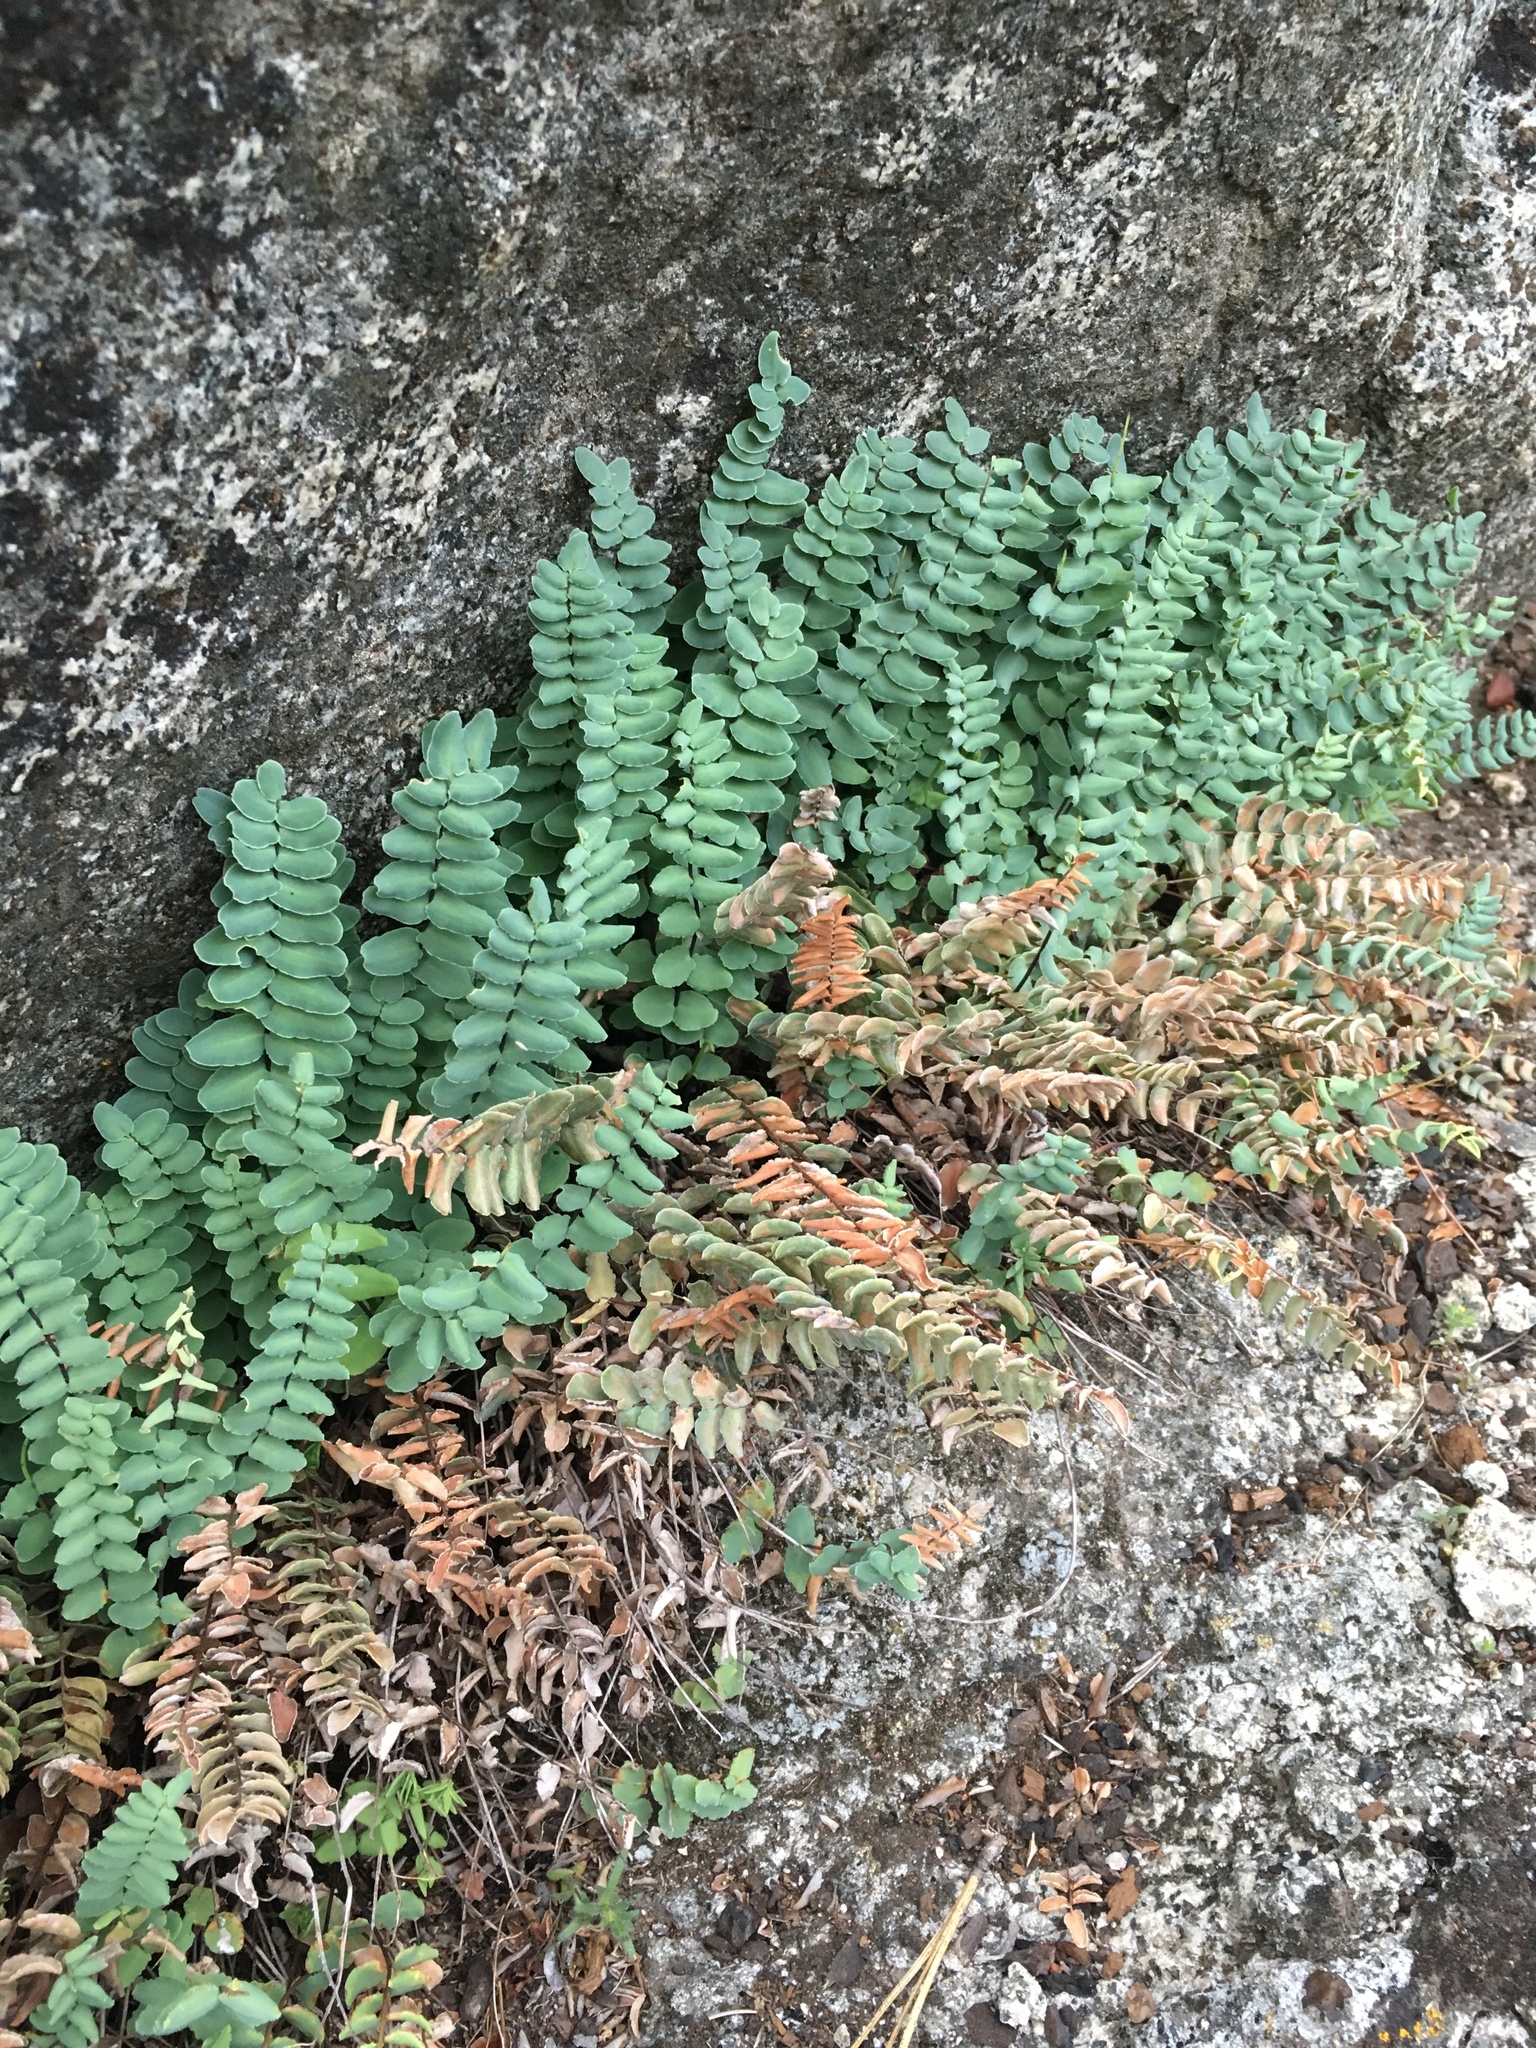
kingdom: Plantae
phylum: Tracheophyta
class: Polypodiopsida
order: Polypodiales
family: Pteridaceae
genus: Pellaea
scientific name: Pellaea bridgesii
